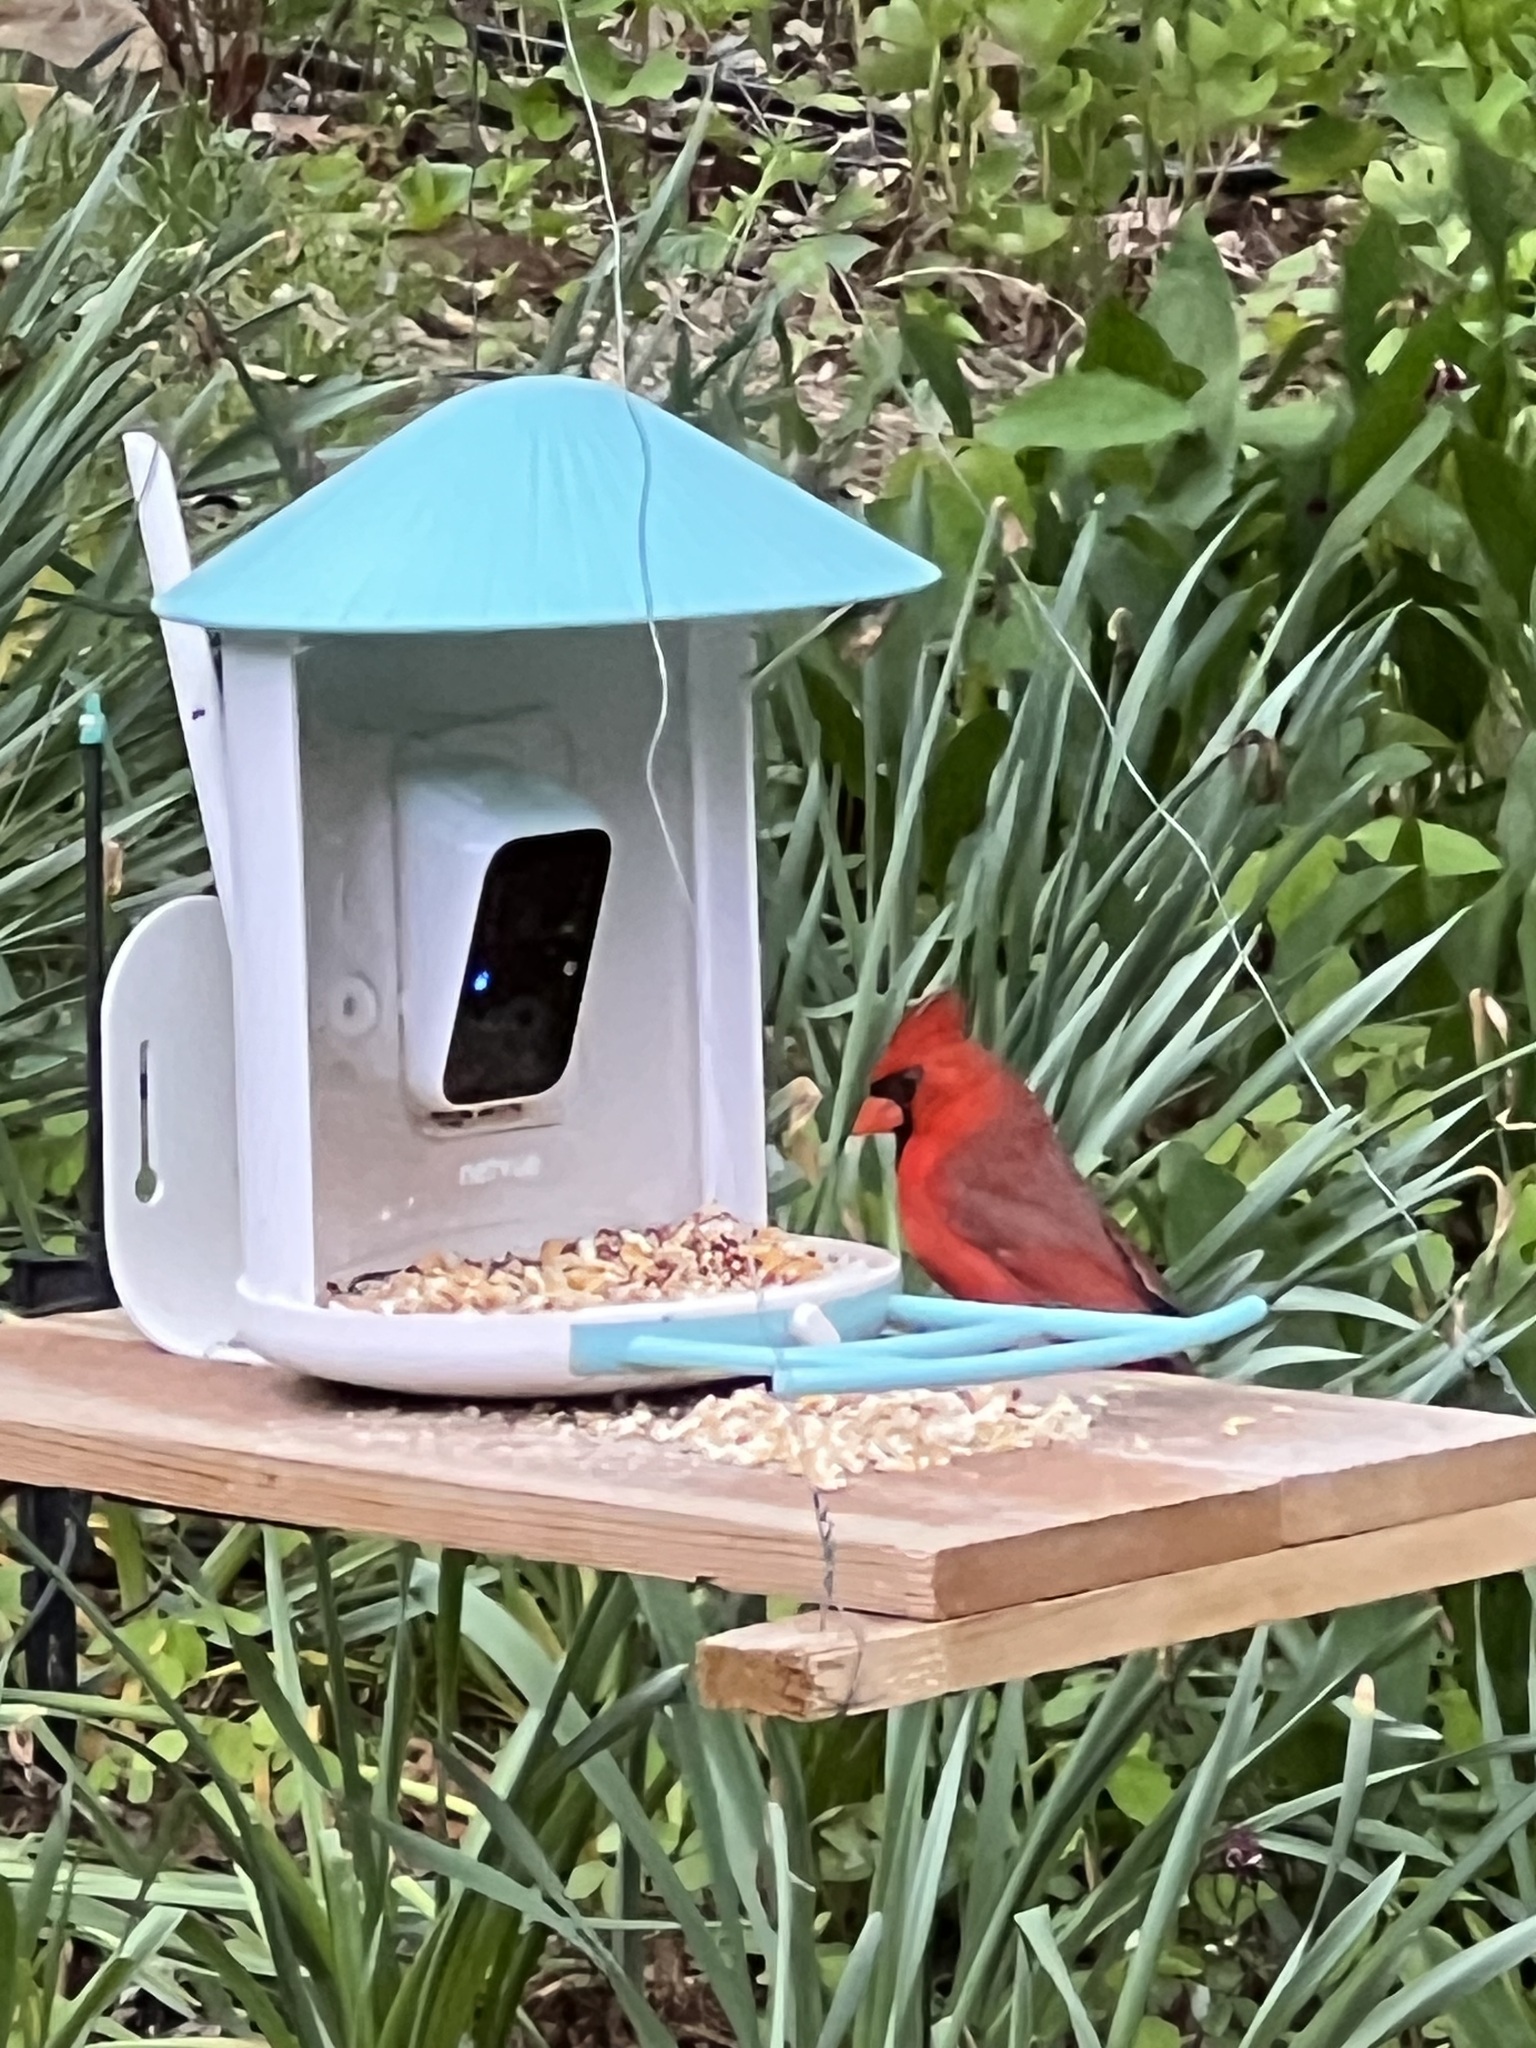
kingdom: Animalia
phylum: Chordata
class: Aves
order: Passeriformes
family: Cardinalidae
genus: Cardinalis
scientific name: Cardinalis cardinalis
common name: Northern cardinal
